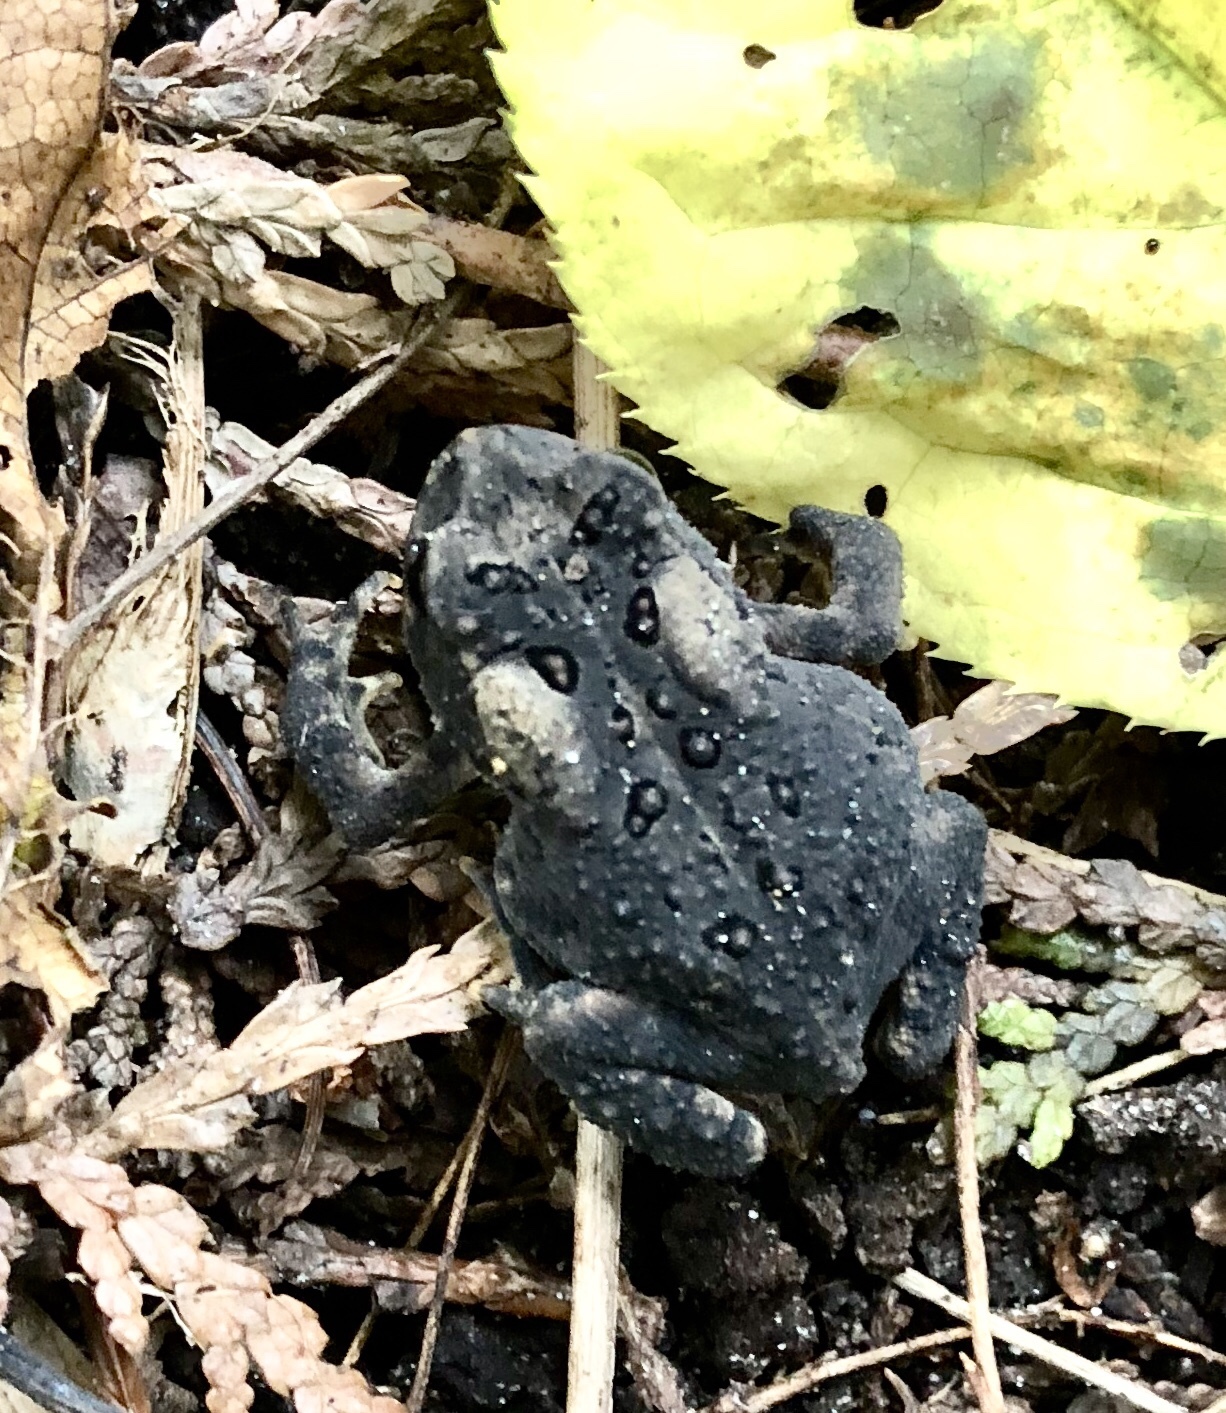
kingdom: Animalia
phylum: Chordata
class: Amphibia
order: Anura
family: Bufonidae
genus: Anaxyrus
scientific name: Anaxyrus americanus
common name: American toad
